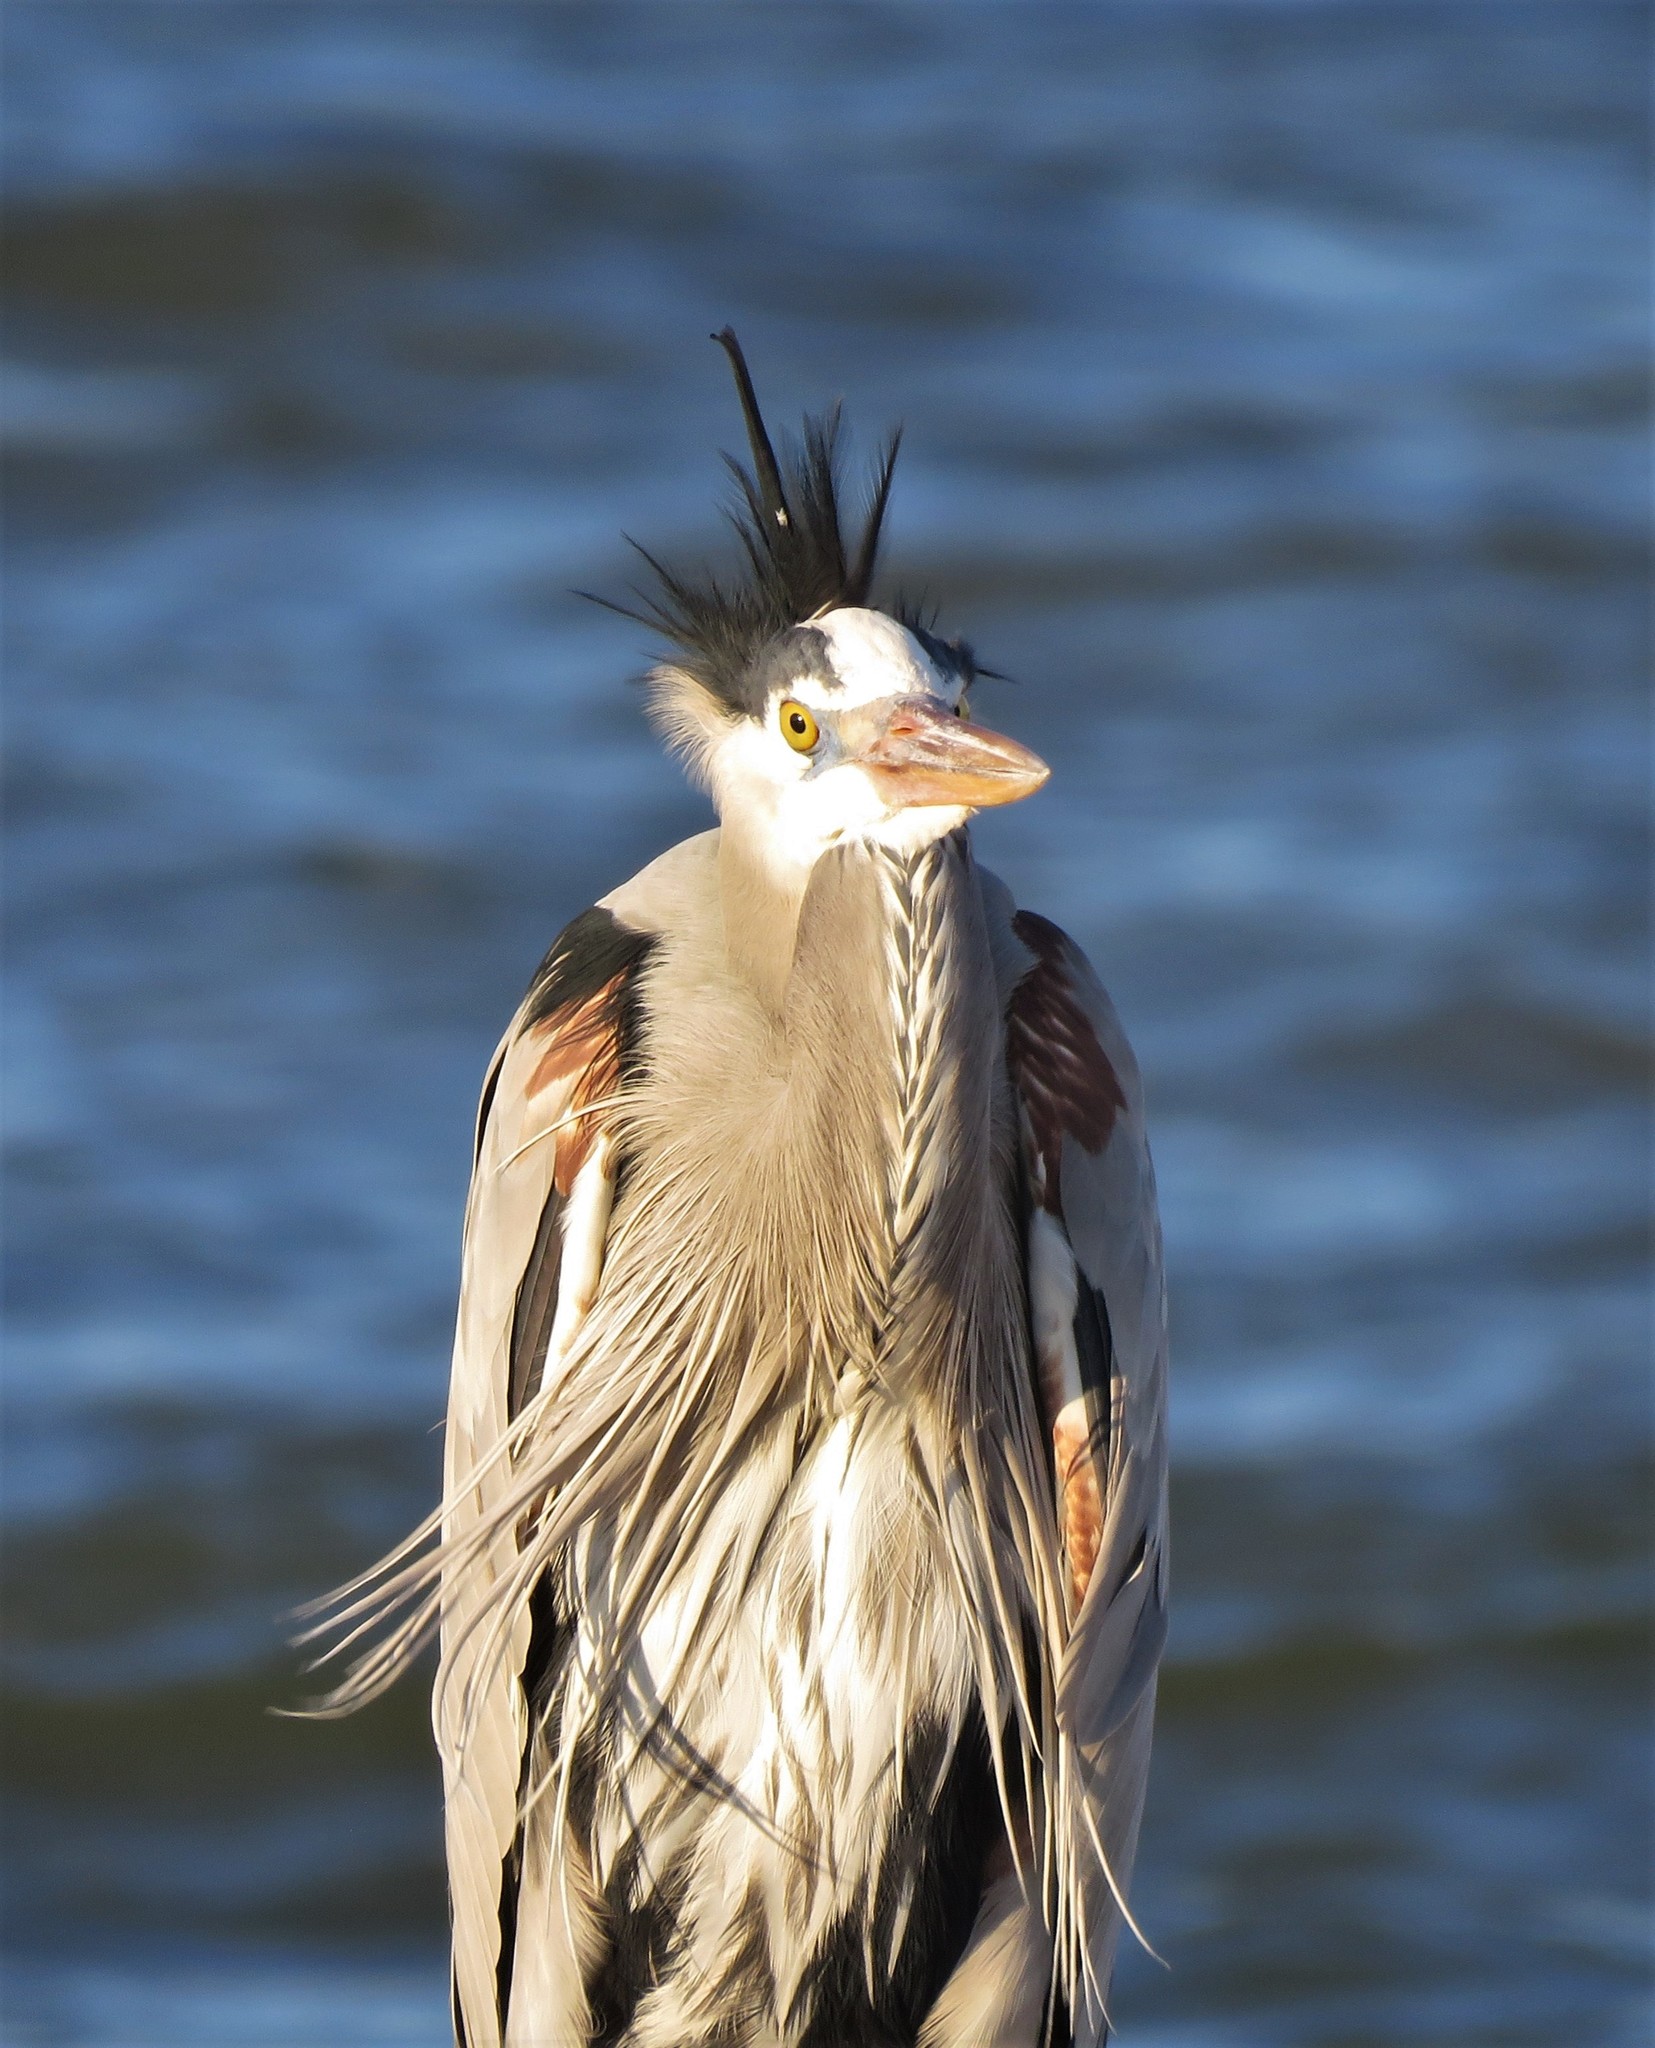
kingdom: Animalia
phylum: Chordata
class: Aves
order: Pelecaniformes
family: Ardeidae
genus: Ardea
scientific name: Ardea herodias
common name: Great blue heron
